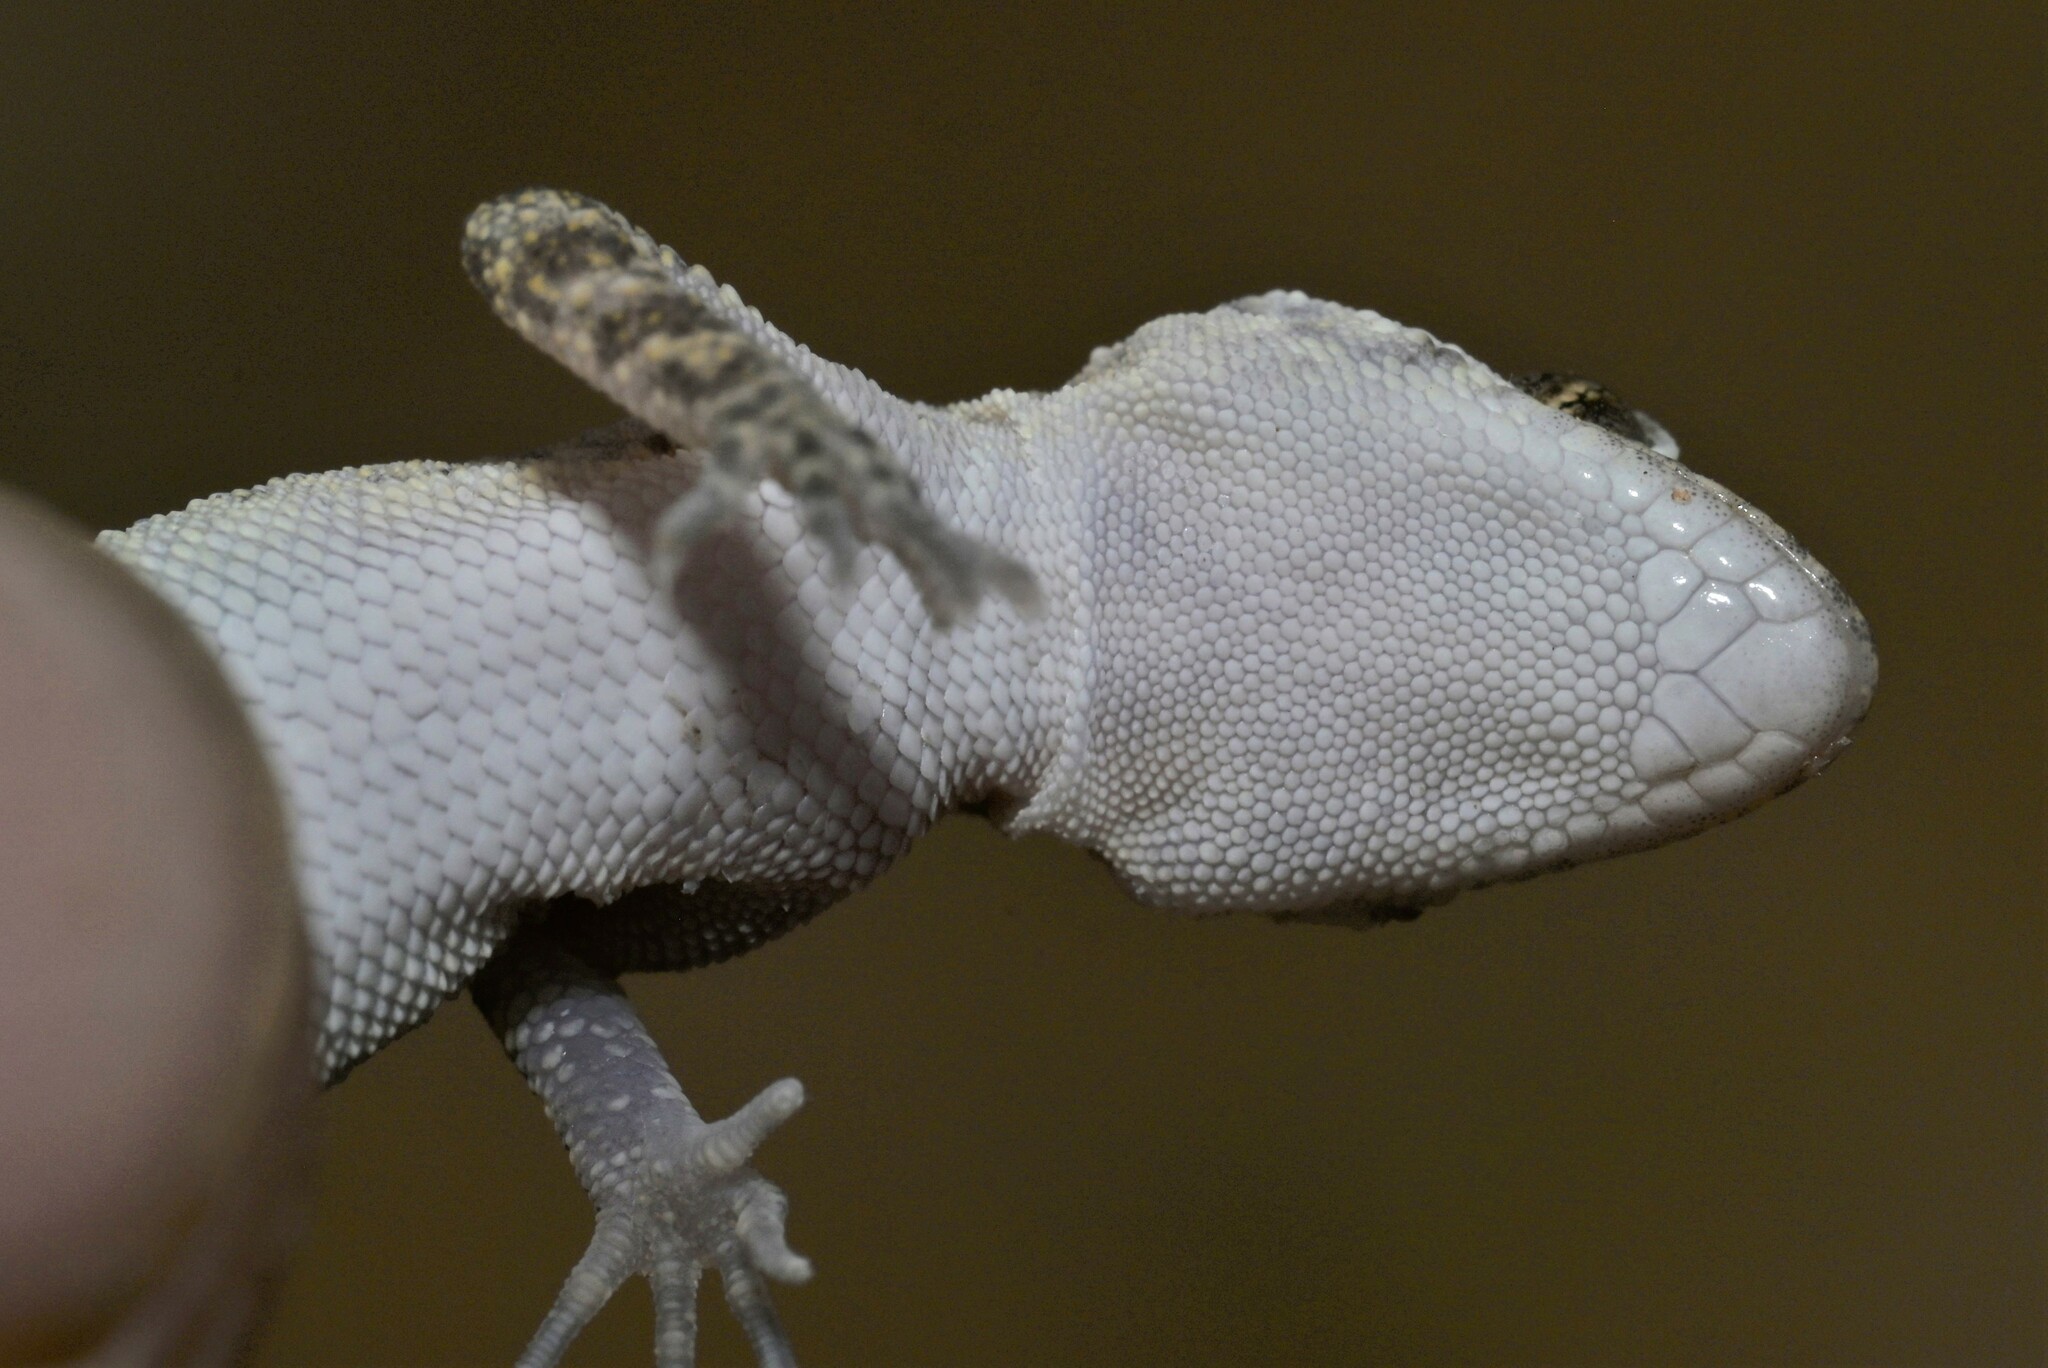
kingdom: Animalia
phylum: Chordata
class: Squamata
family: Gekkonidae
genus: Cyrtopodion
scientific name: Cyrtopodion scabrum
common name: Rough-tailed gecko
